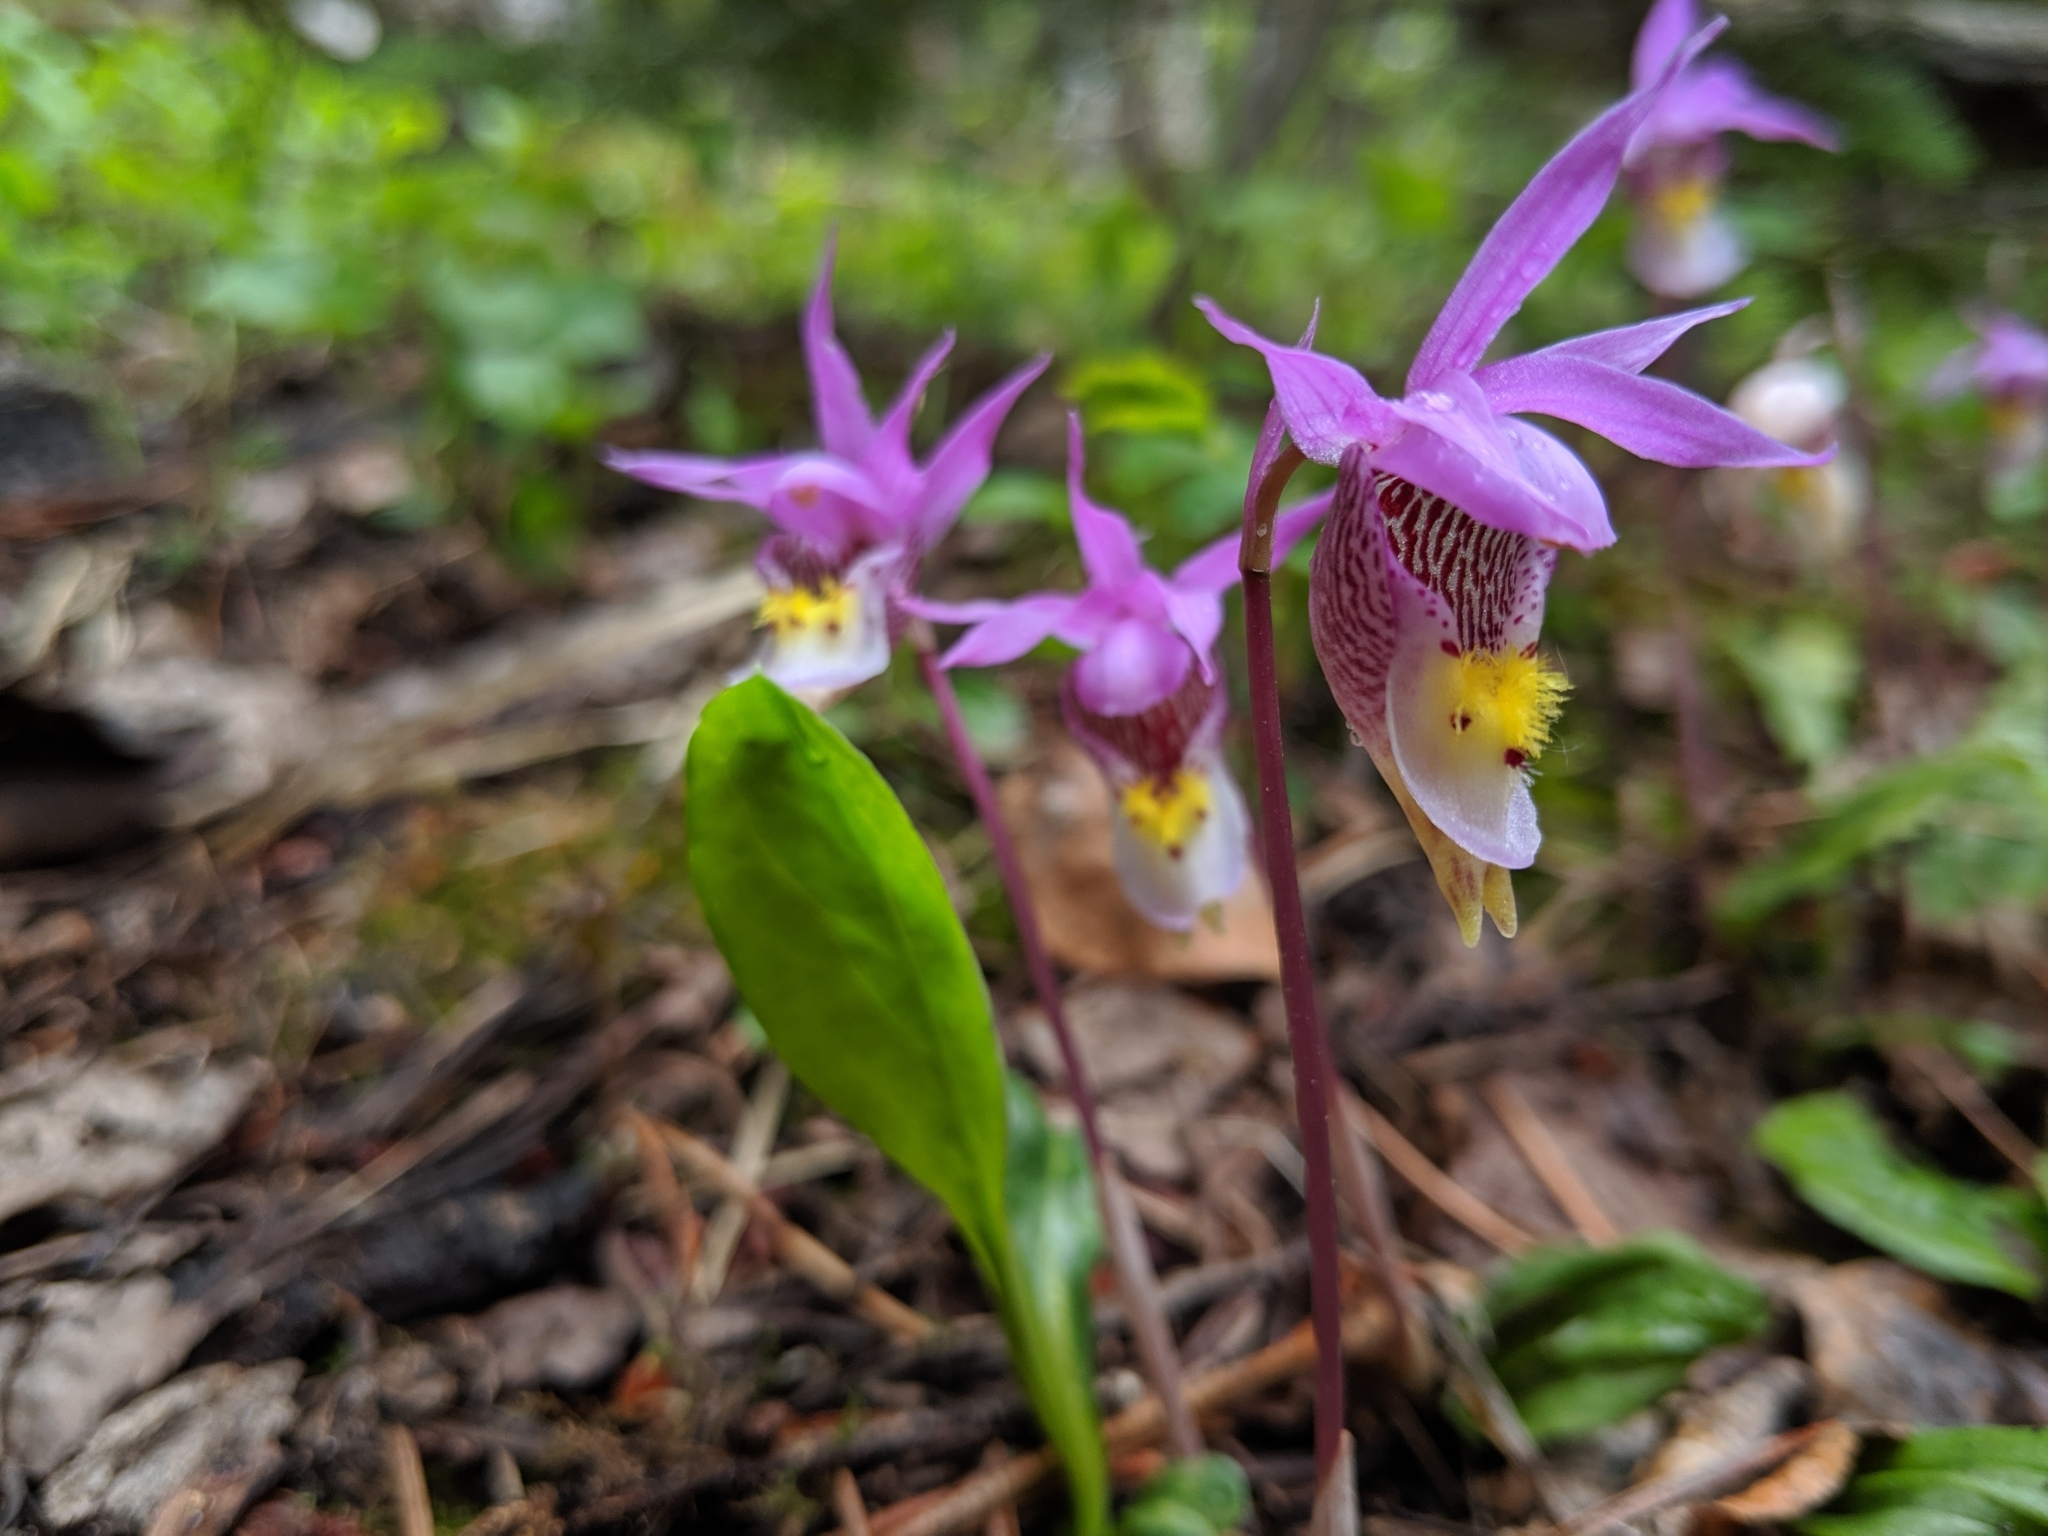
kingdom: Plantae
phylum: Tracheophyta
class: Liliopsida
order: Asparagales
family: Orchidaceae
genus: Calypso
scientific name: Calypso bulbosa
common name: Calypso
